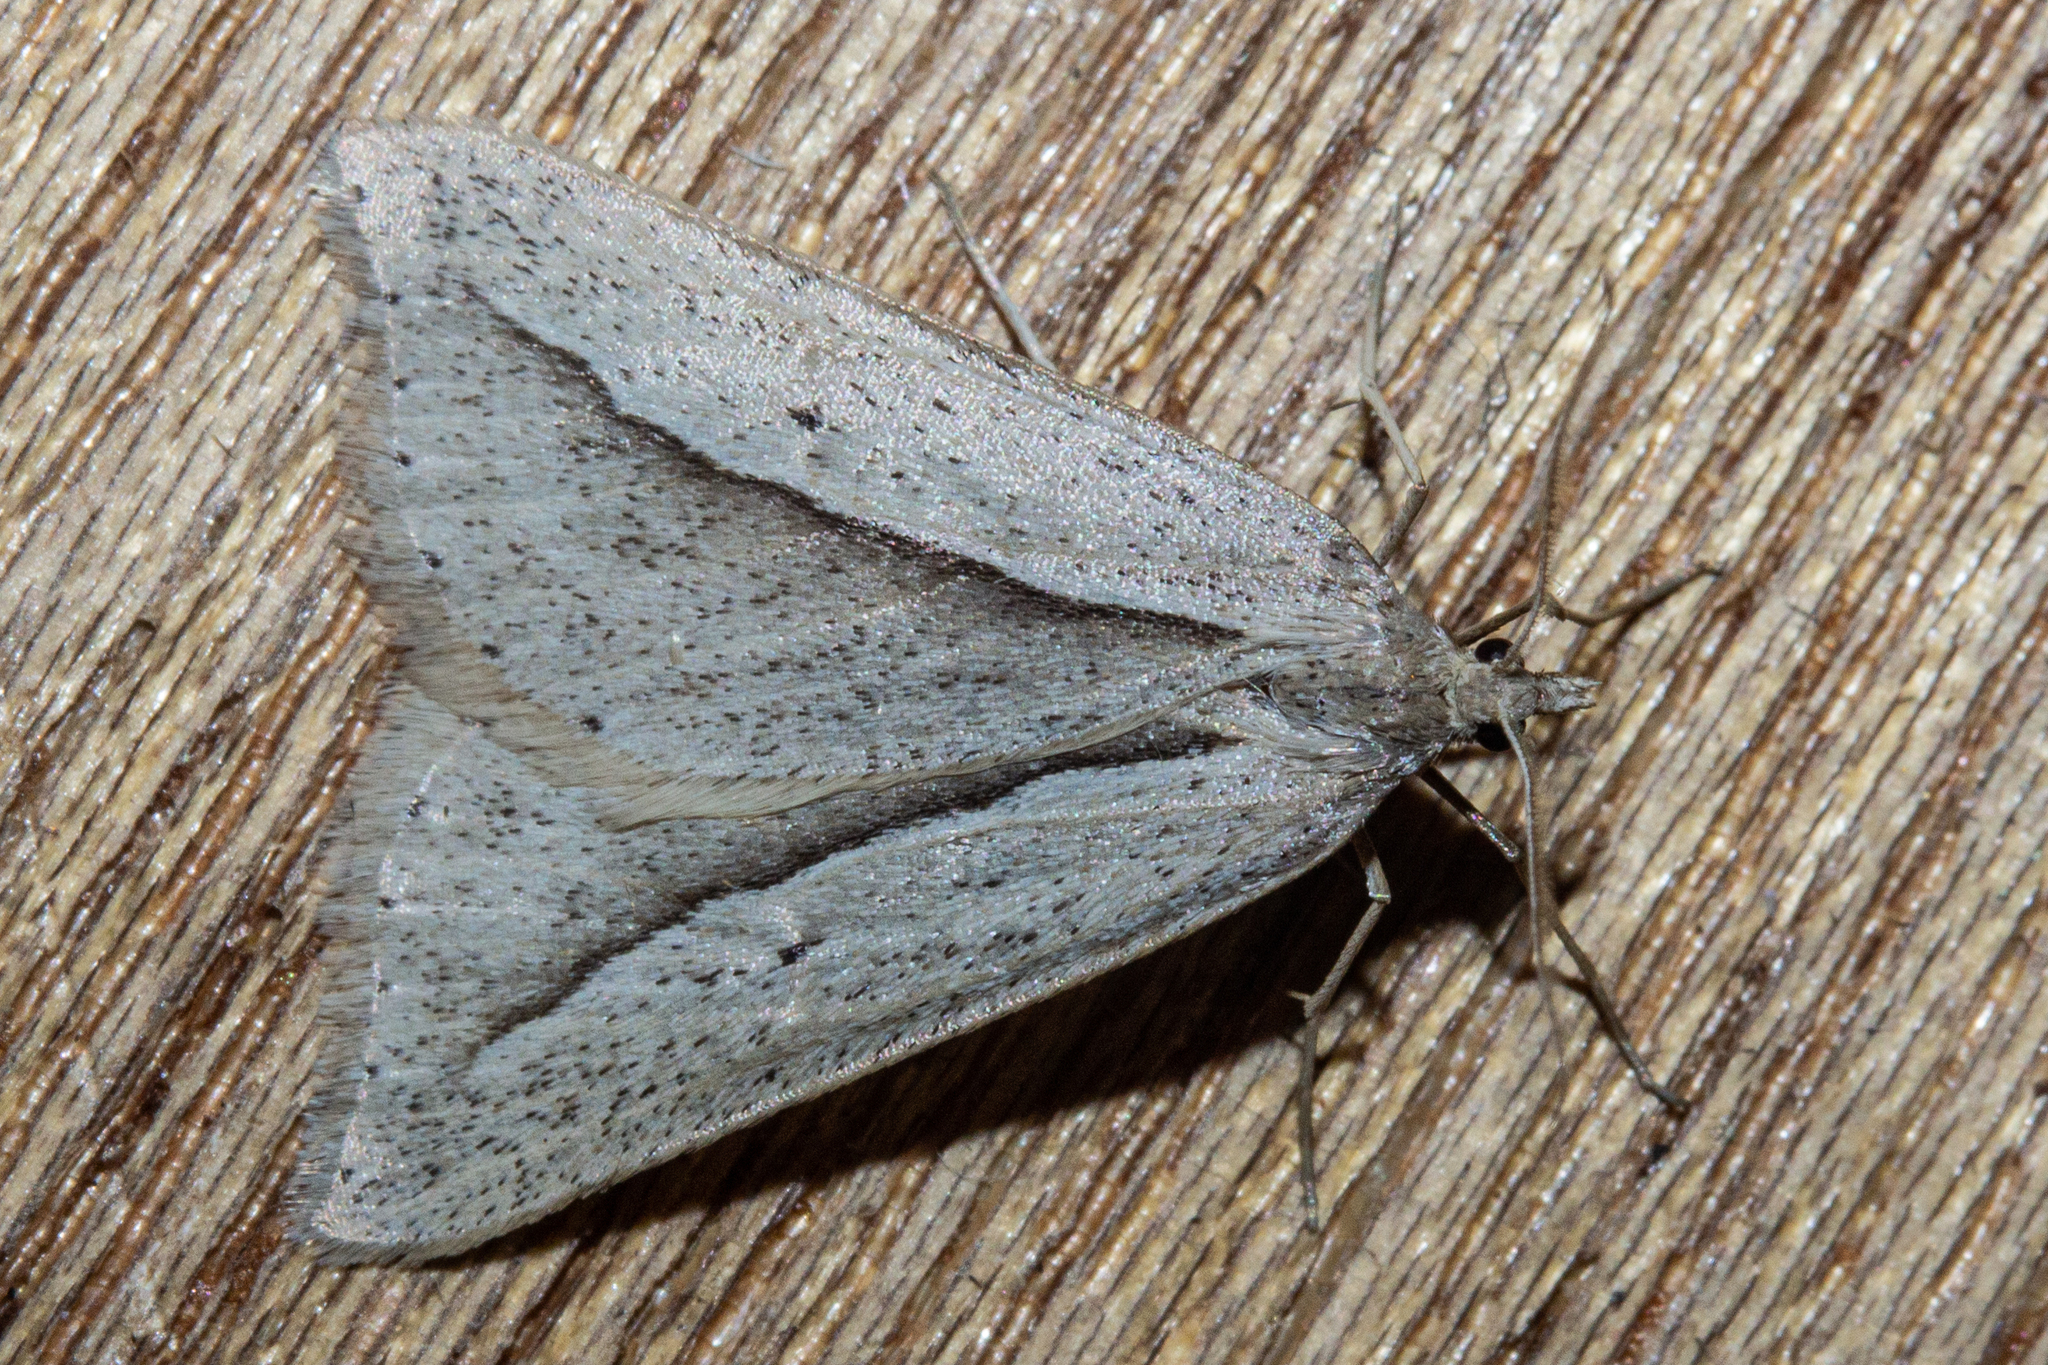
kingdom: Animalia
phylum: Arthropoda
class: Insecta
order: Lepidoptera
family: Geometridae
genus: Theoxena
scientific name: Theoxena scissaria
